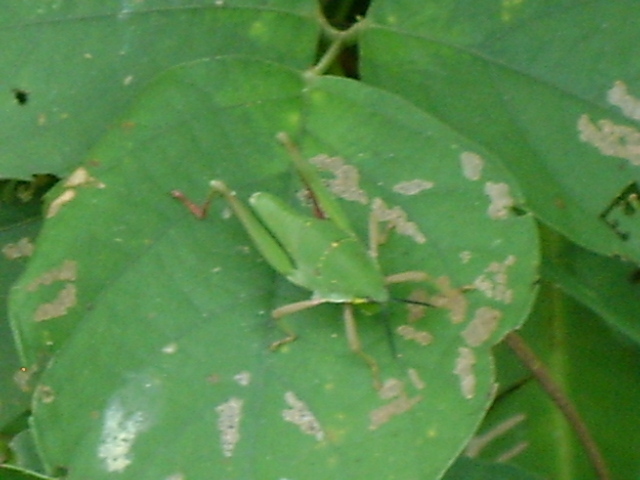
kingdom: Animalia
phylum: Arthropoda
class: Insecta
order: Orthoptera
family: Pyrgomorphidae
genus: Sphenarium
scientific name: Sphenarium mexicanum
